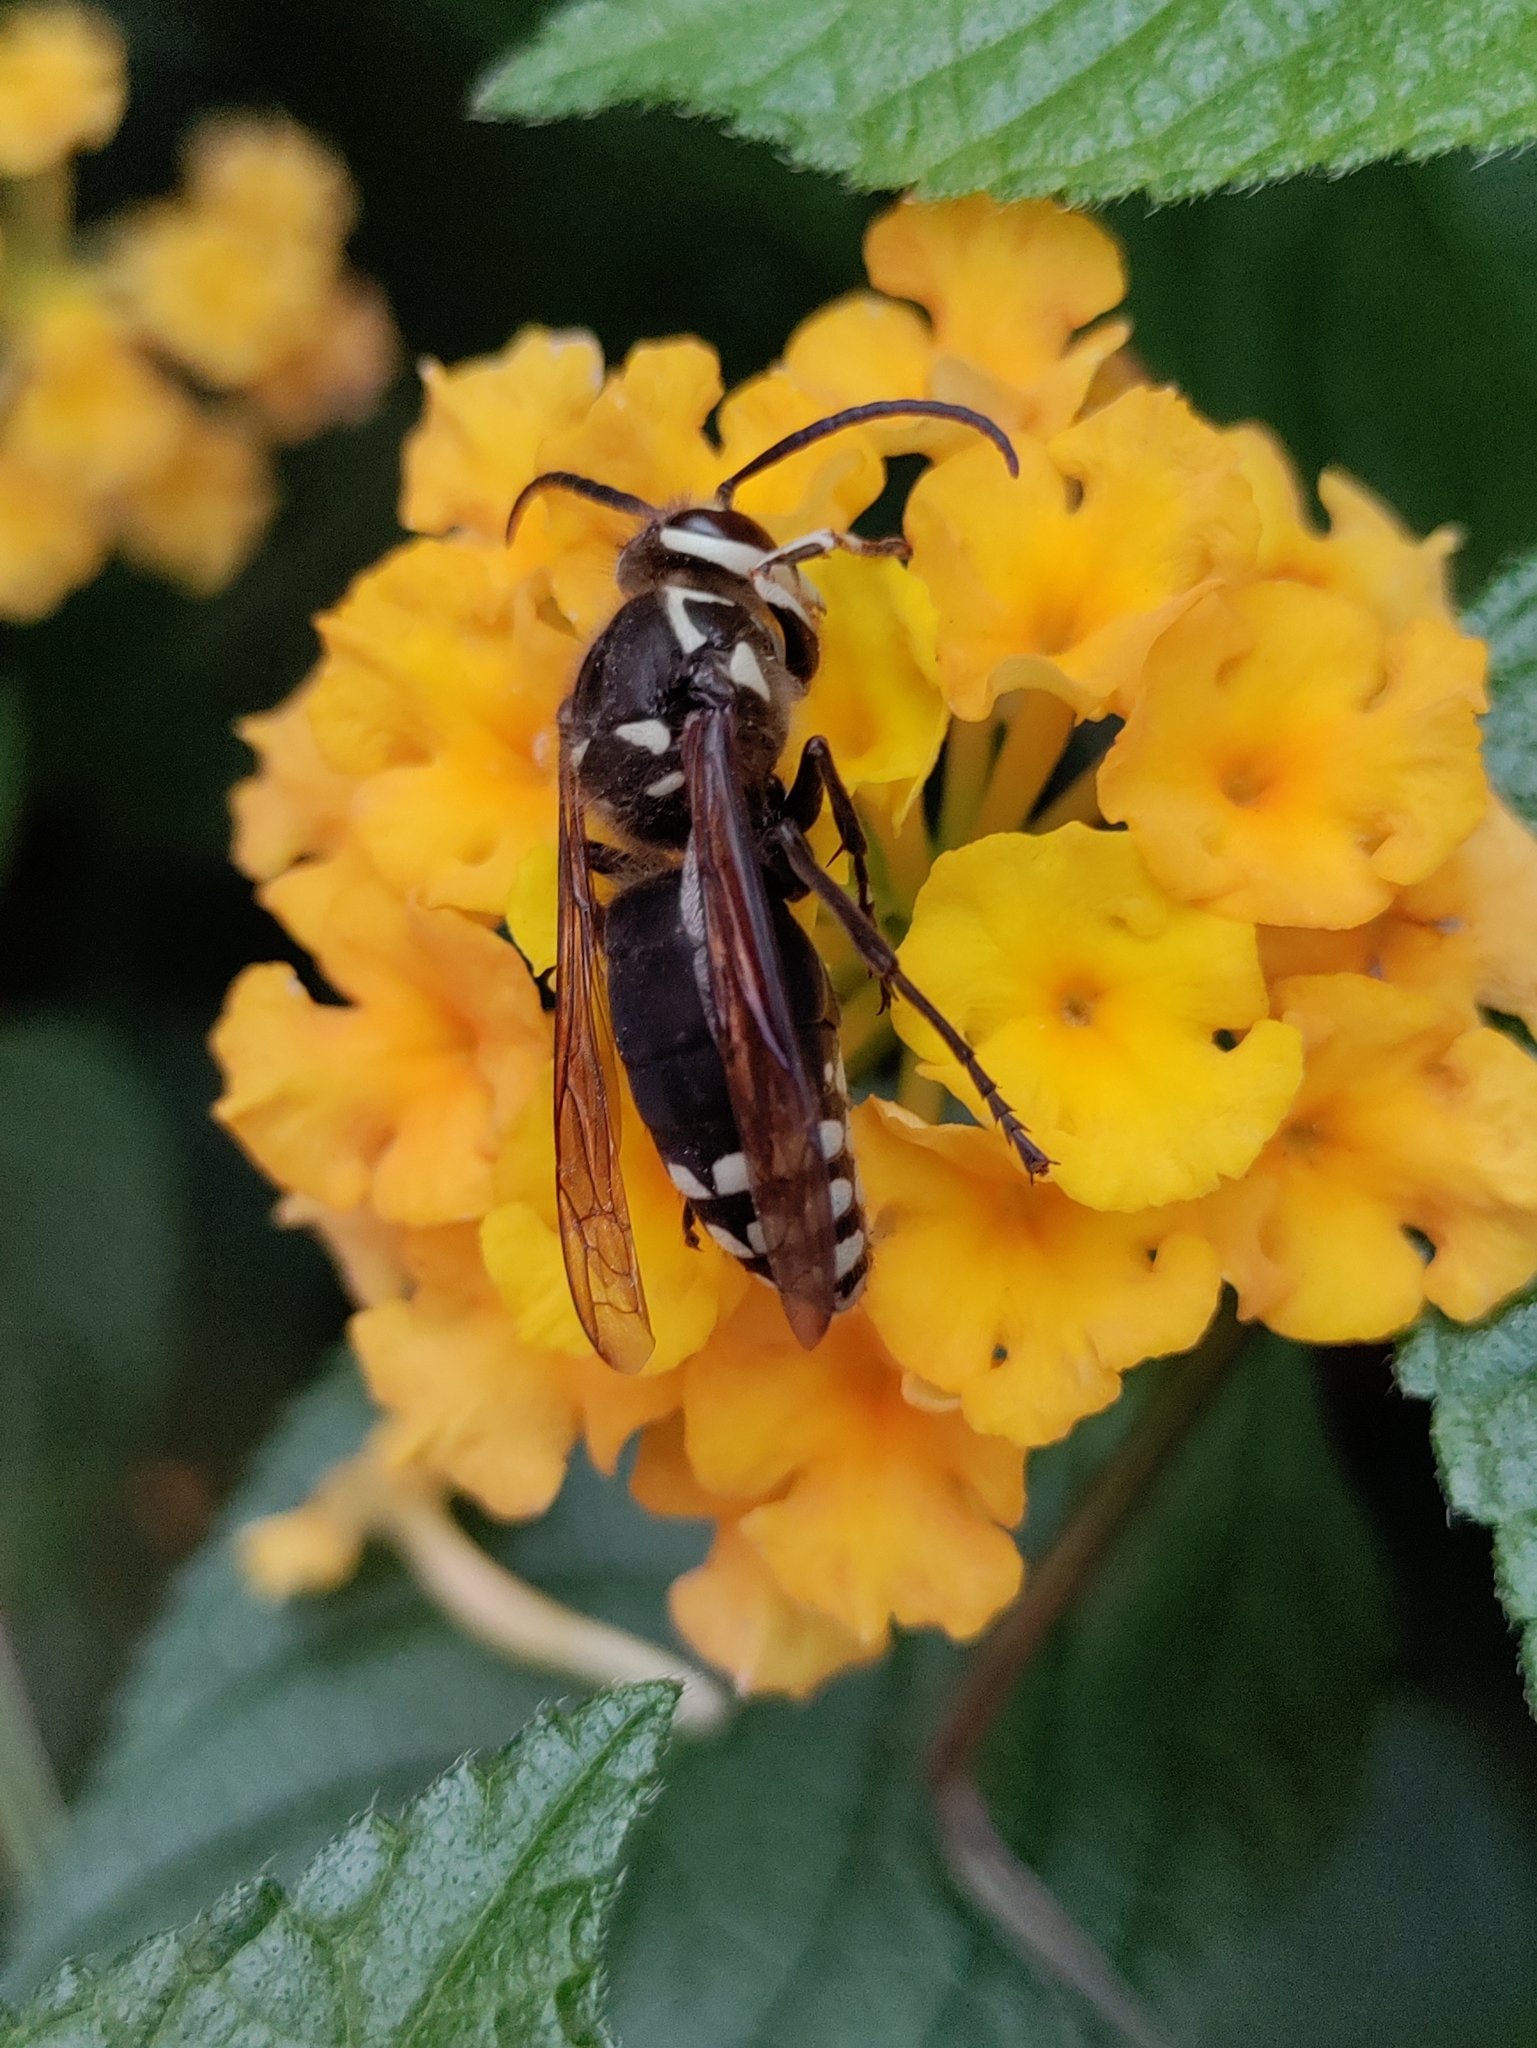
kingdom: Animalia
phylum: Arthropoda
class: Insecta
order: Hymenoptera
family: Vespidae
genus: Dolichovespula
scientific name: Dolichovespula maculata
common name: Bald-faced hornet
